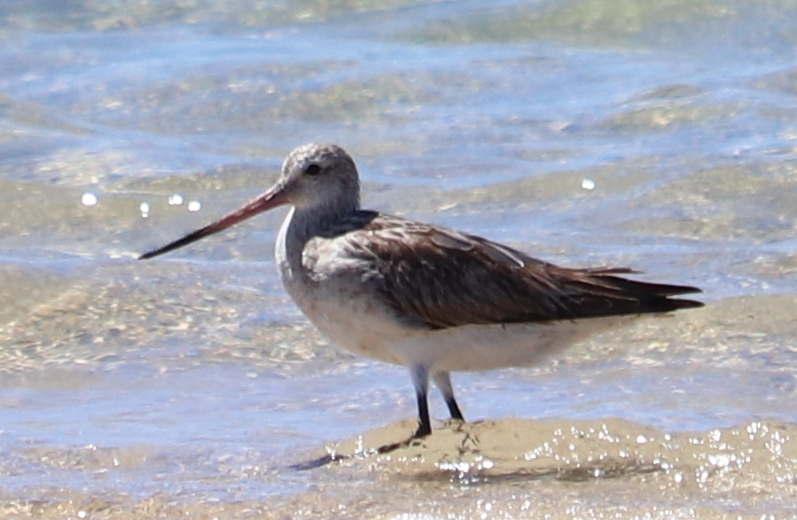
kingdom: Animalia
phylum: Chordata
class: Aves
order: Charadriiformes
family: Scolopacidae
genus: Limosa
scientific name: Limosa lapponica
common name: Bar-tailed godwit
